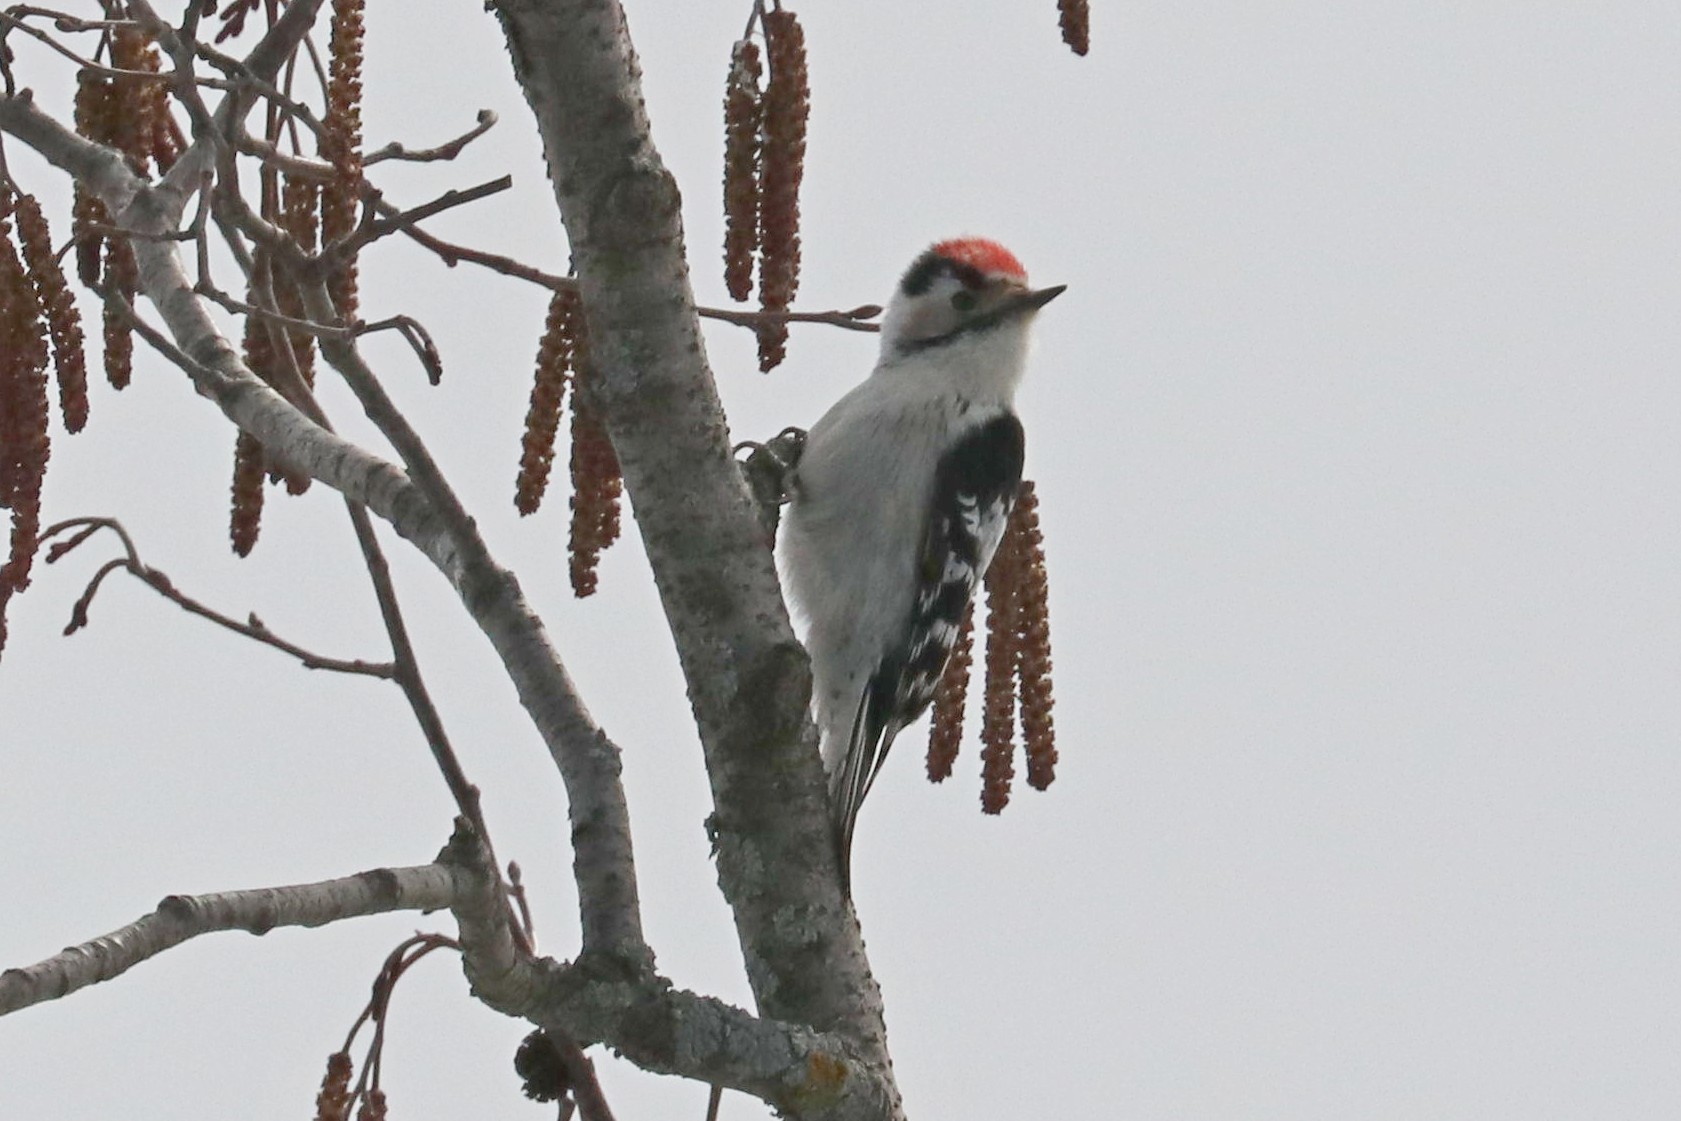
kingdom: Animalia
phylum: Chordata
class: Aves
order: Piciformes
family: Picidae
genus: Dryobates
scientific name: Dryobates minor
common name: Lesser spotted woodpecker
